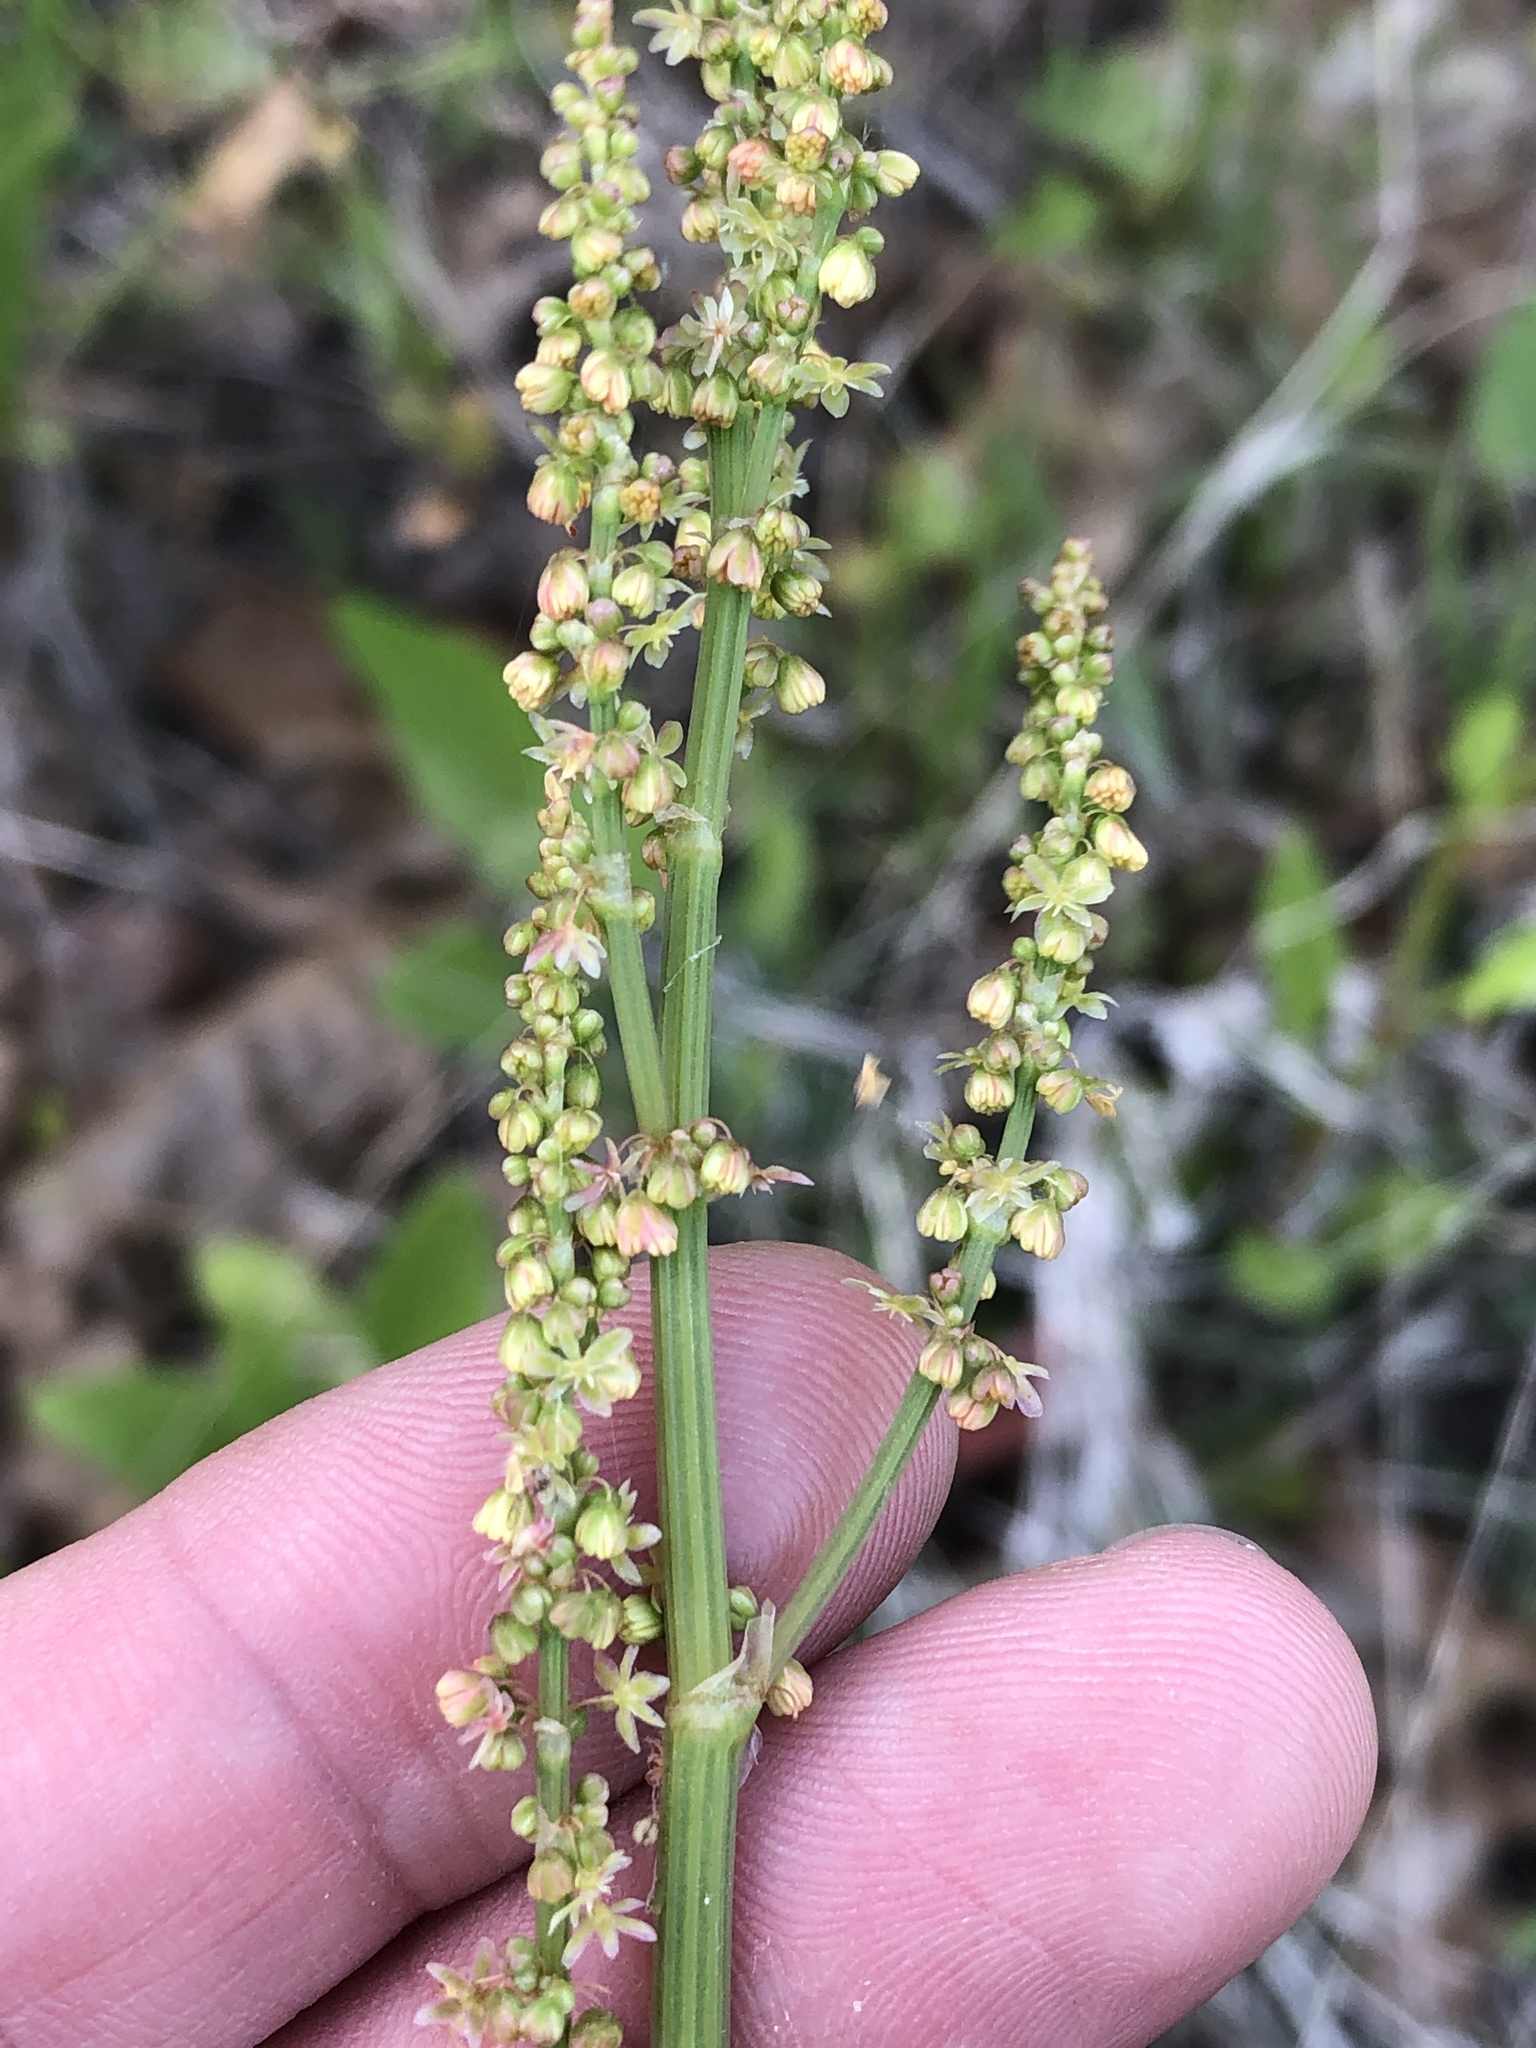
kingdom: Plantae
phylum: Tracheophyta
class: Magnoliopsida
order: Caryophyllales
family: Polygonaceae
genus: Rumex
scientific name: Rumex hastatulus
